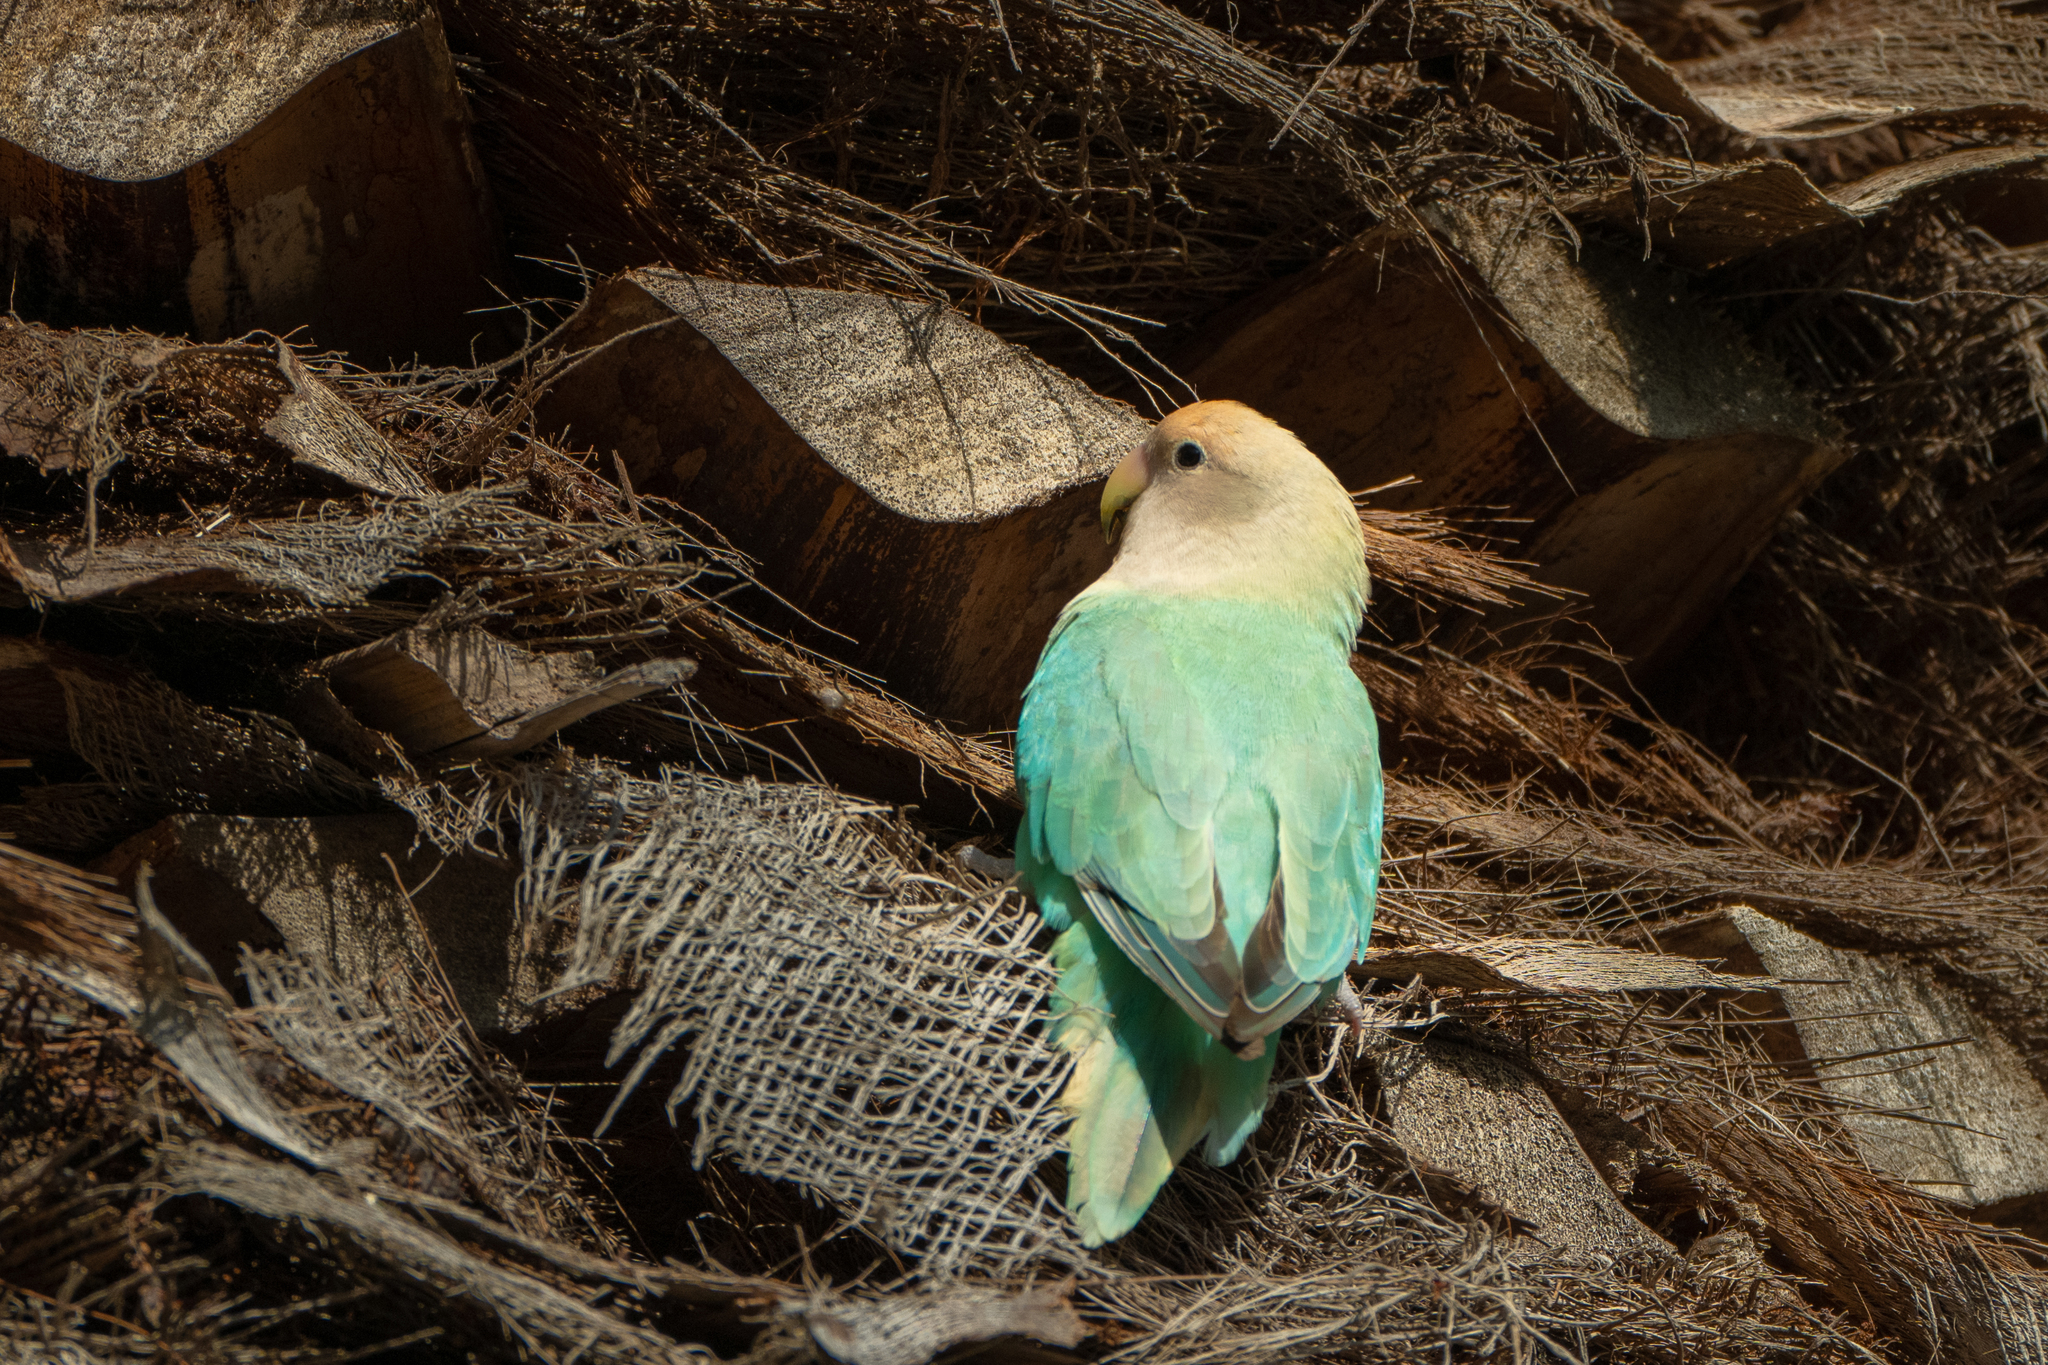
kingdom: Animalia
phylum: Chordata
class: Aves
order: Psittaciformes
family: Psittacidae
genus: Agapornis
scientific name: Agapornis roseicollis
